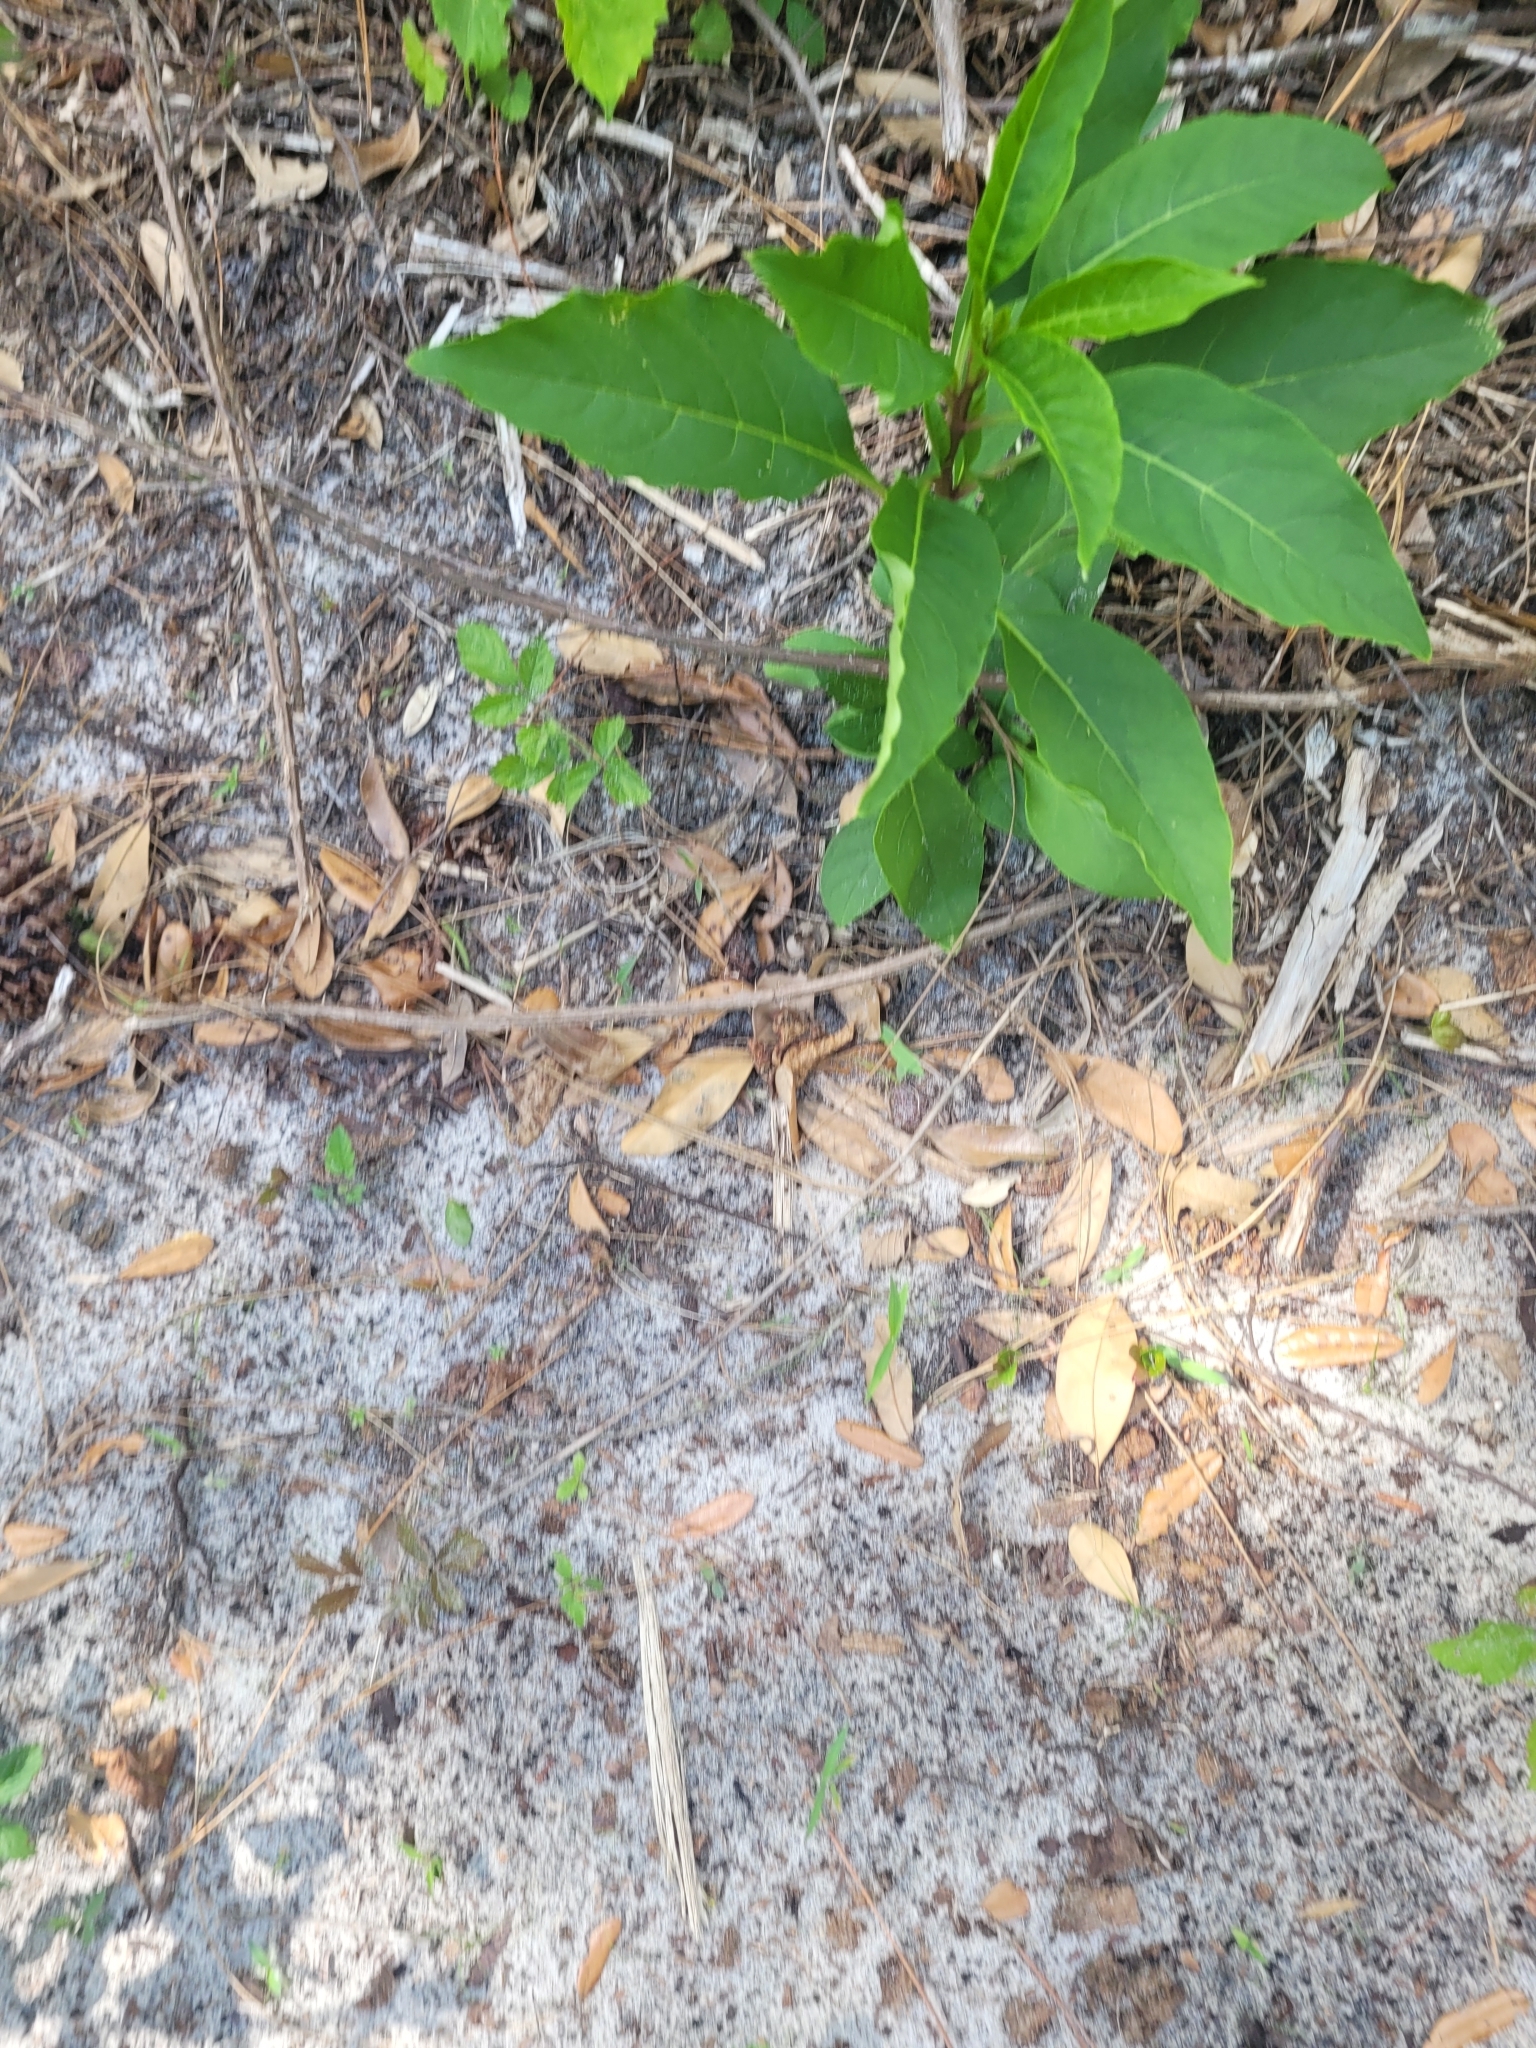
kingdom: Plantae
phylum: Tracheophyta
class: Magnoliopsida
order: Caryophyllales
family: Phytolaccaceae
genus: Phytolacca
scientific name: Phytolacca americana
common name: American pokeweed
